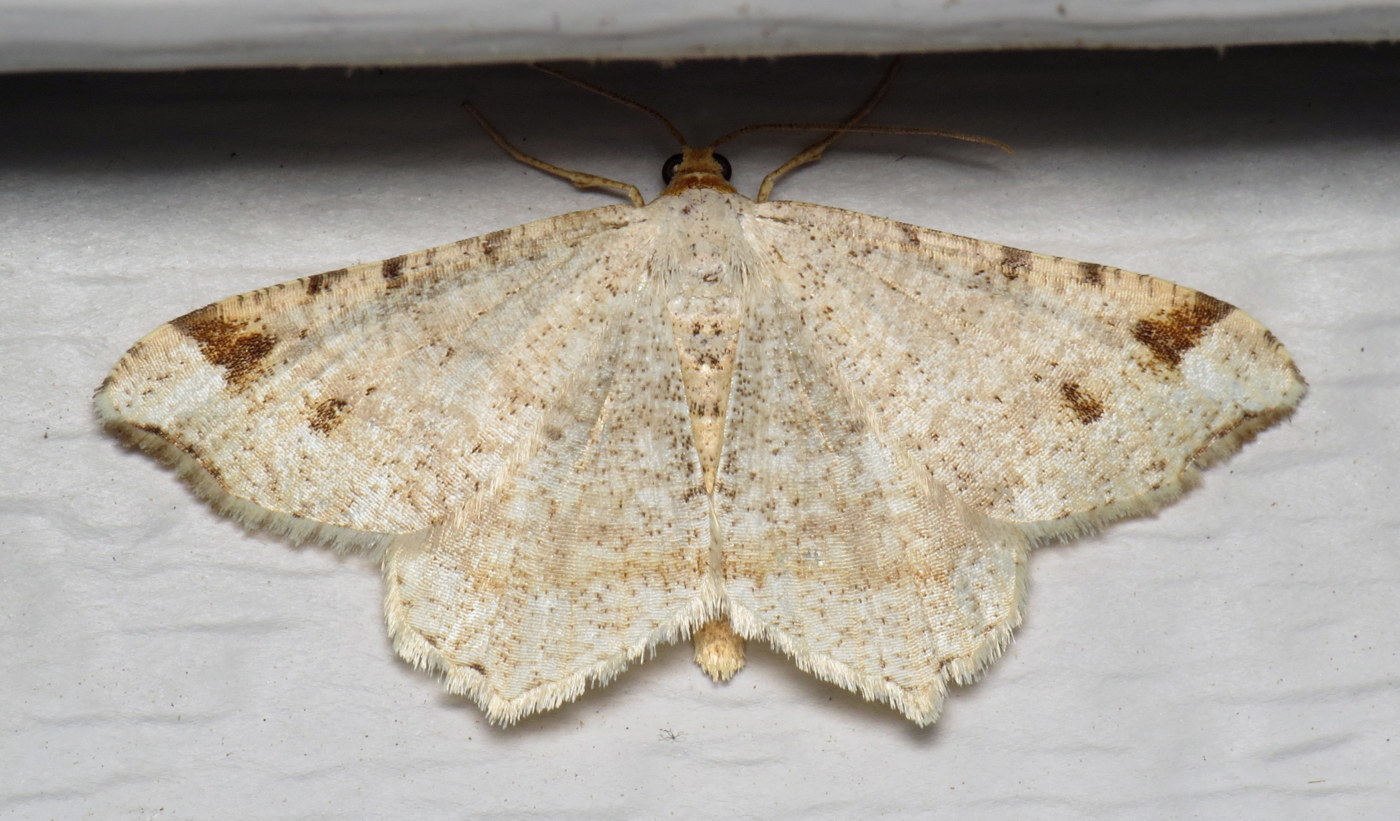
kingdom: Animalia
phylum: Arthropoda
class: Insecta
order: Lepidoptera
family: Geometridae
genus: Macaria
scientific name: Macaria bisignata
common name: Red-headed inchworm
